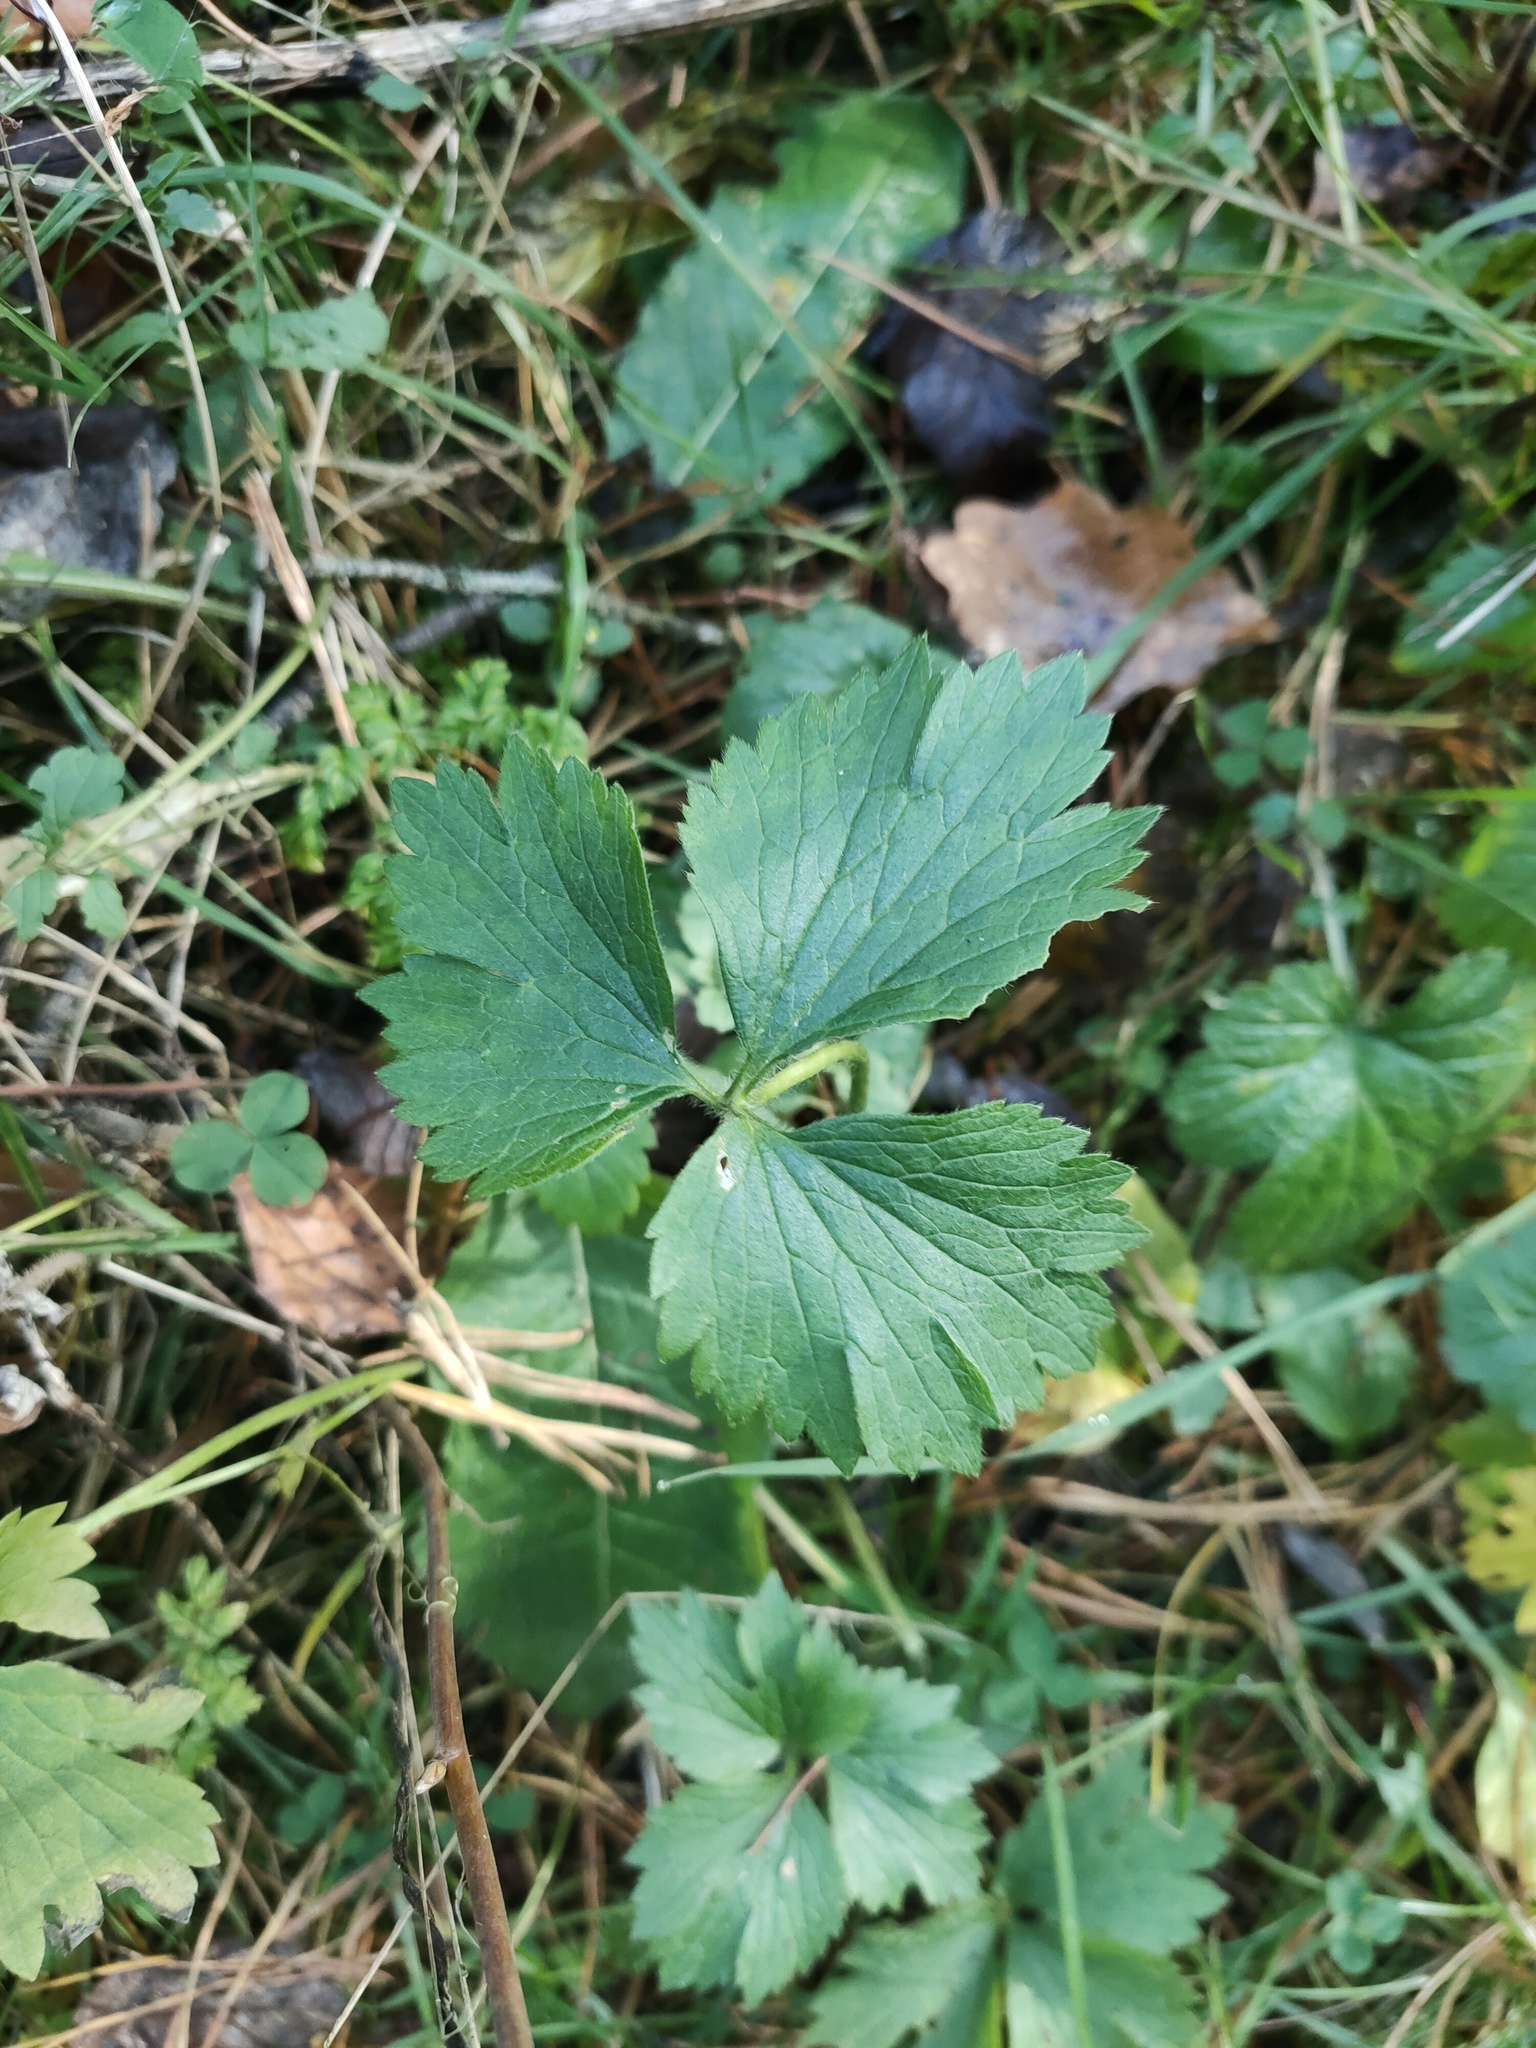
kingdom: Plantae
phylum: Tracheophyta
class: Magnoliopsida
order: Ranunculales
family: Ranunculaceae
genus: Ranunculus
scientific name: Ranunculus repens
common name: Creeping buttercup
